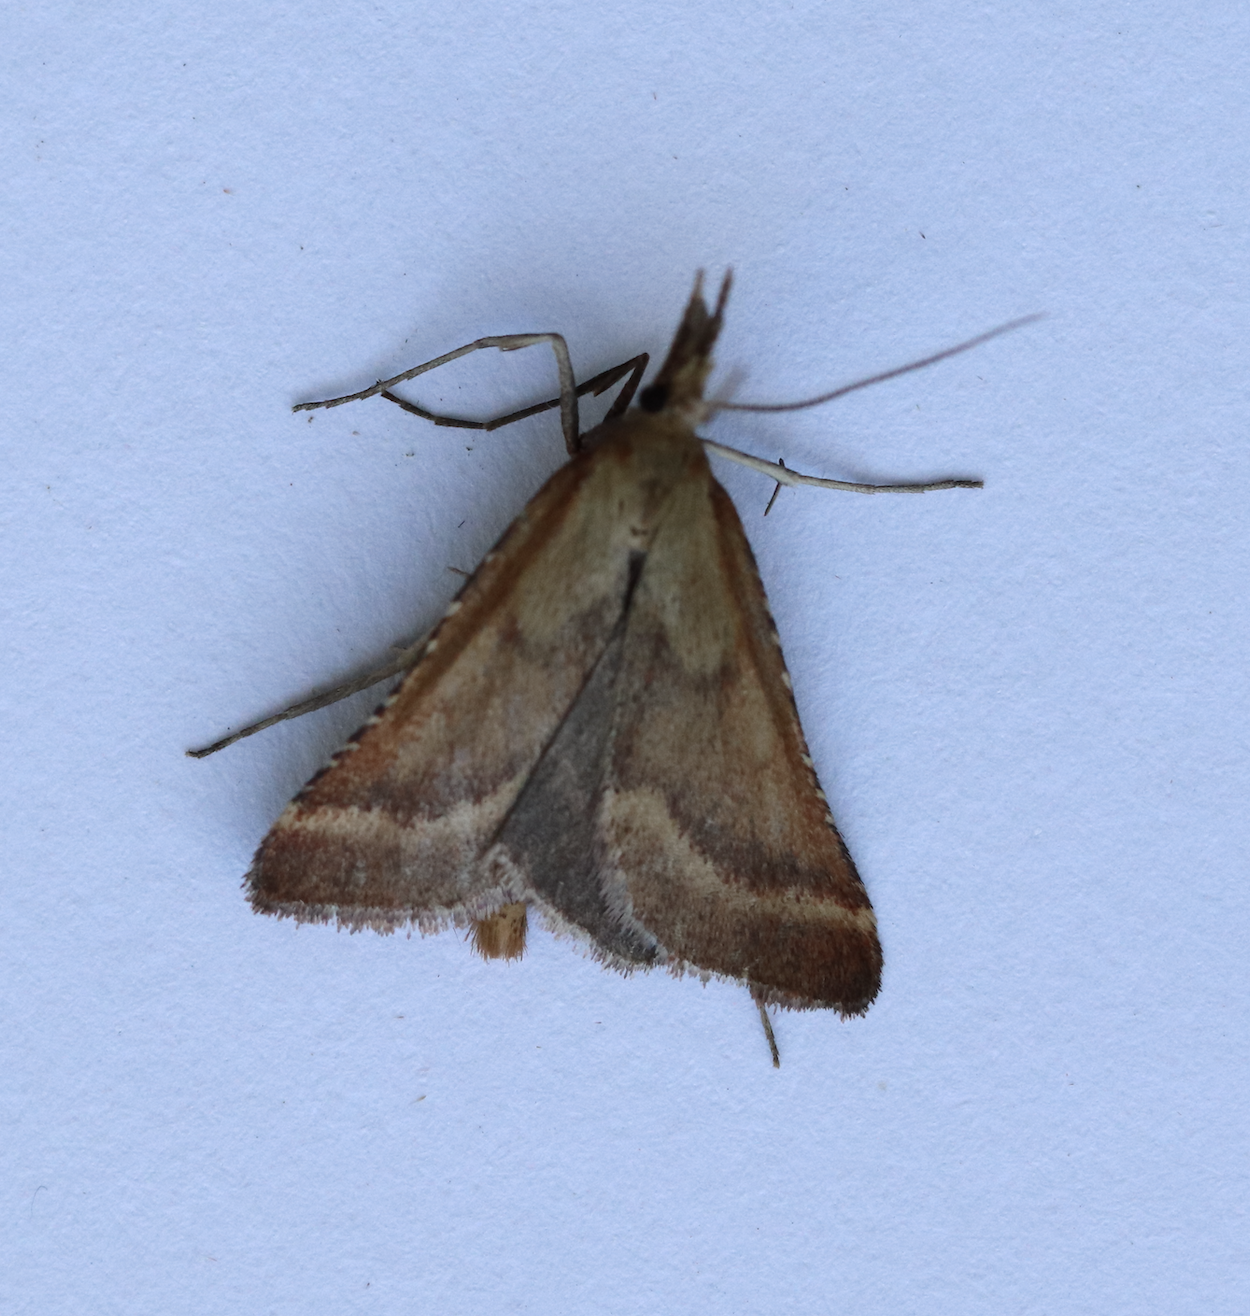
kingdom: Animalia
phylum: Arthropoda
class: Insecta
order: Lepidoptera
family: Pyralidae
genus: Synaphe
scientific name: Synaphe punctalis
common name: Long-legged tabby
